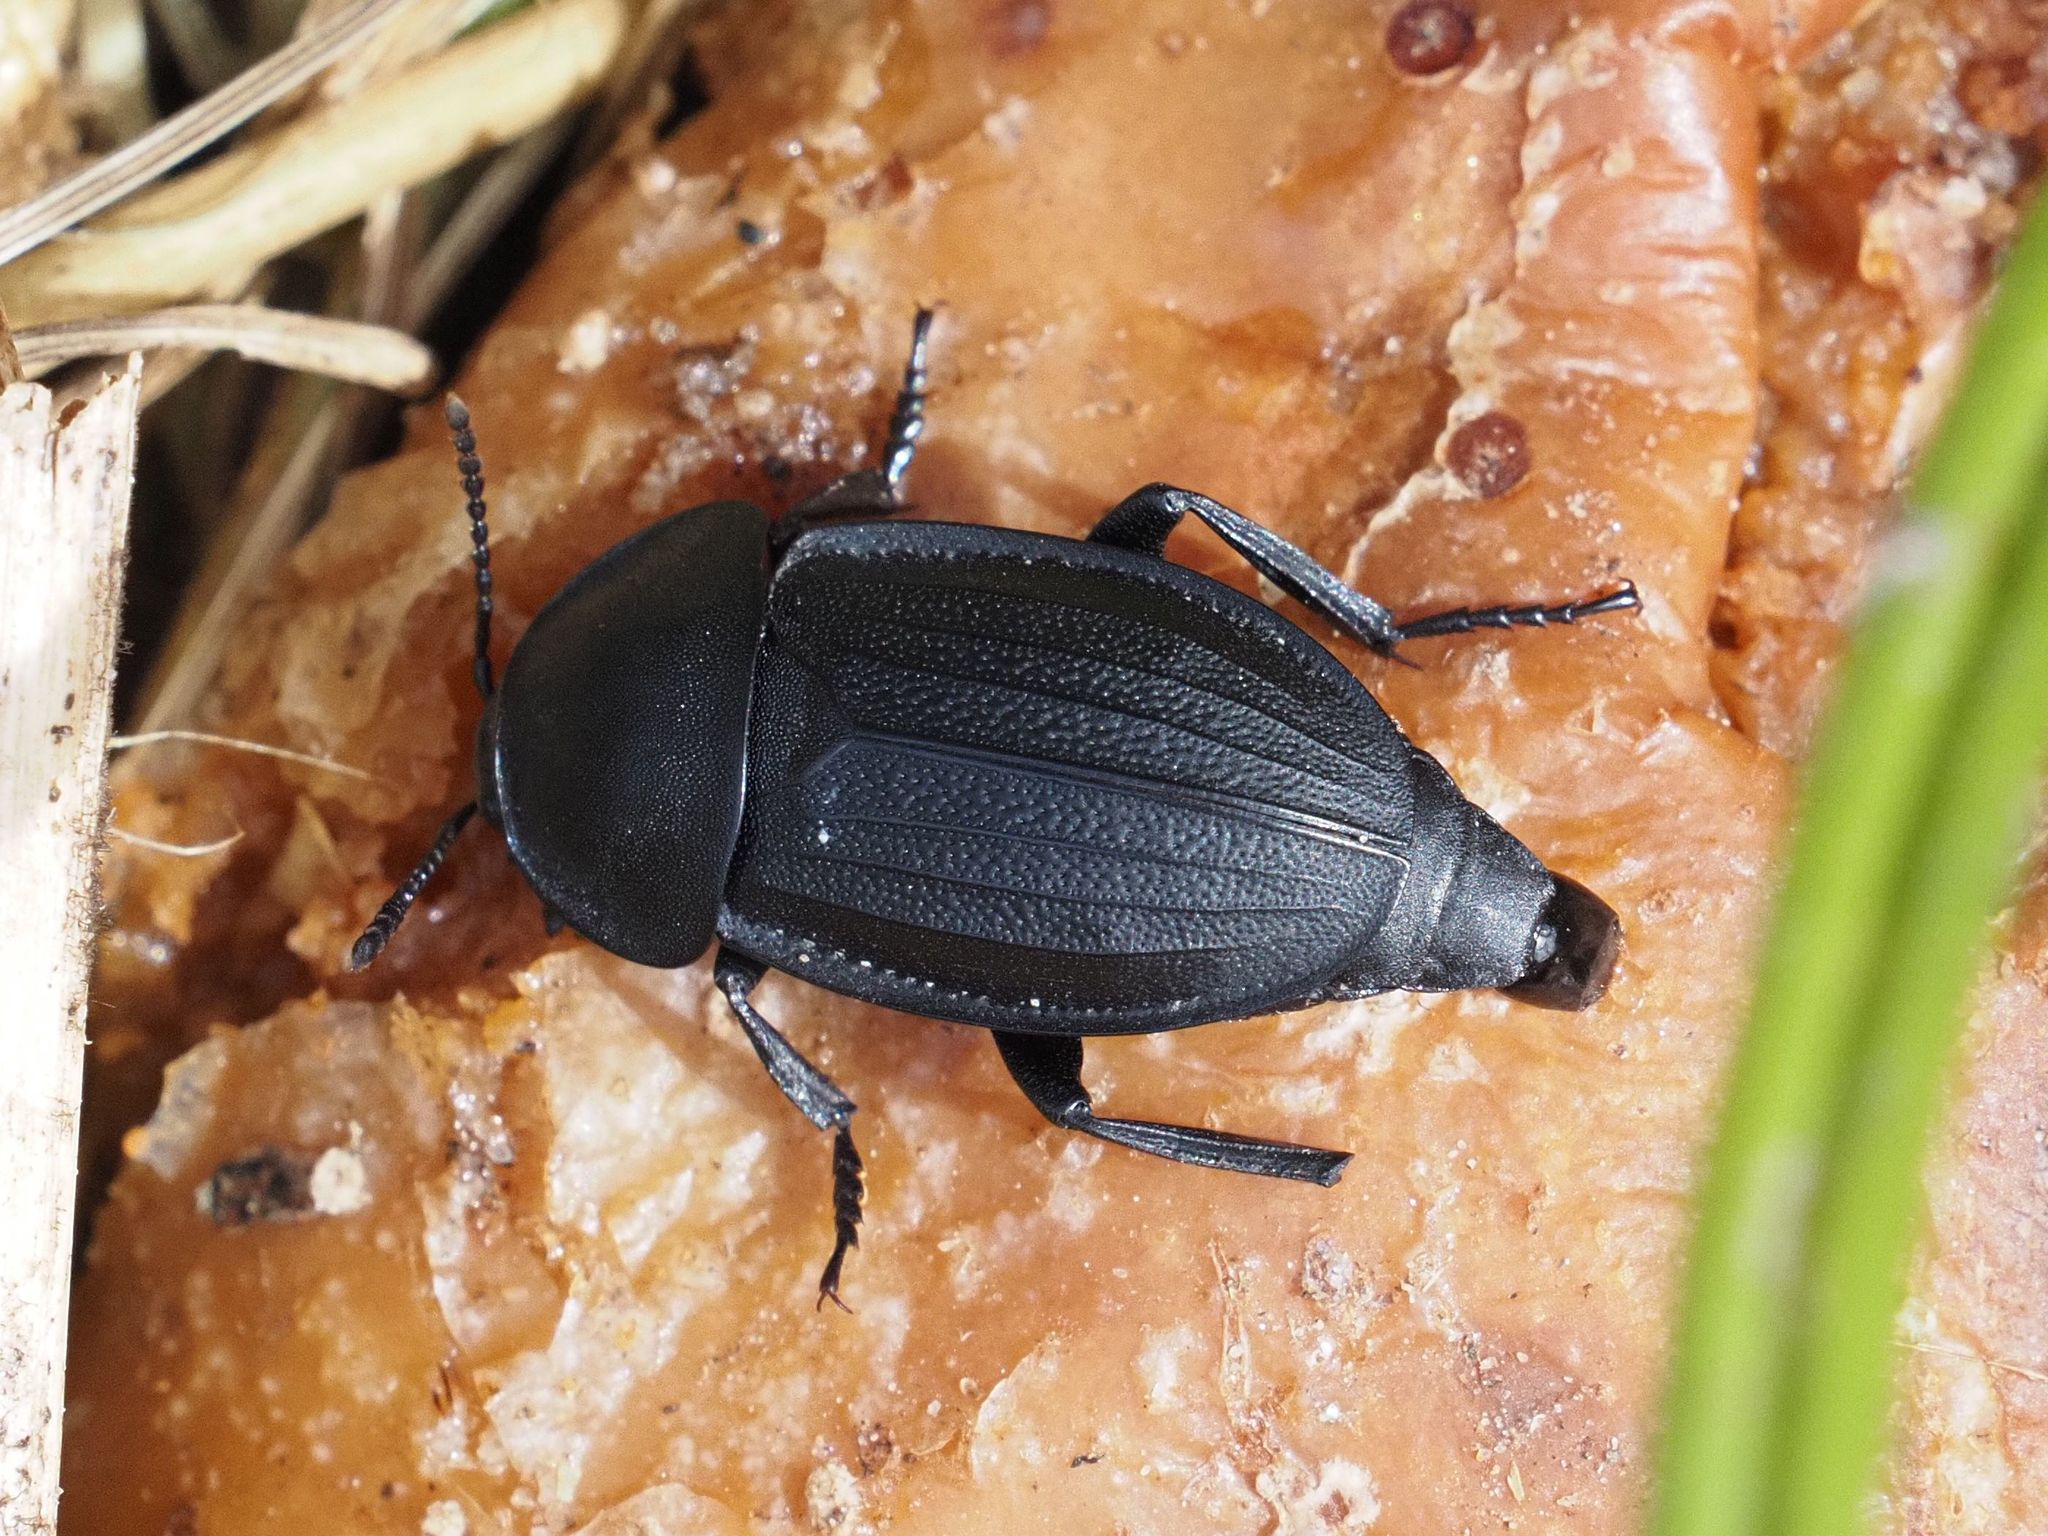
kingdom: Animalia
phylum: Arthropoda
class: Insecta
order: Coleoptera
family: Staphylinidae
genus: Silpha
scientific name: Silpha obscura
